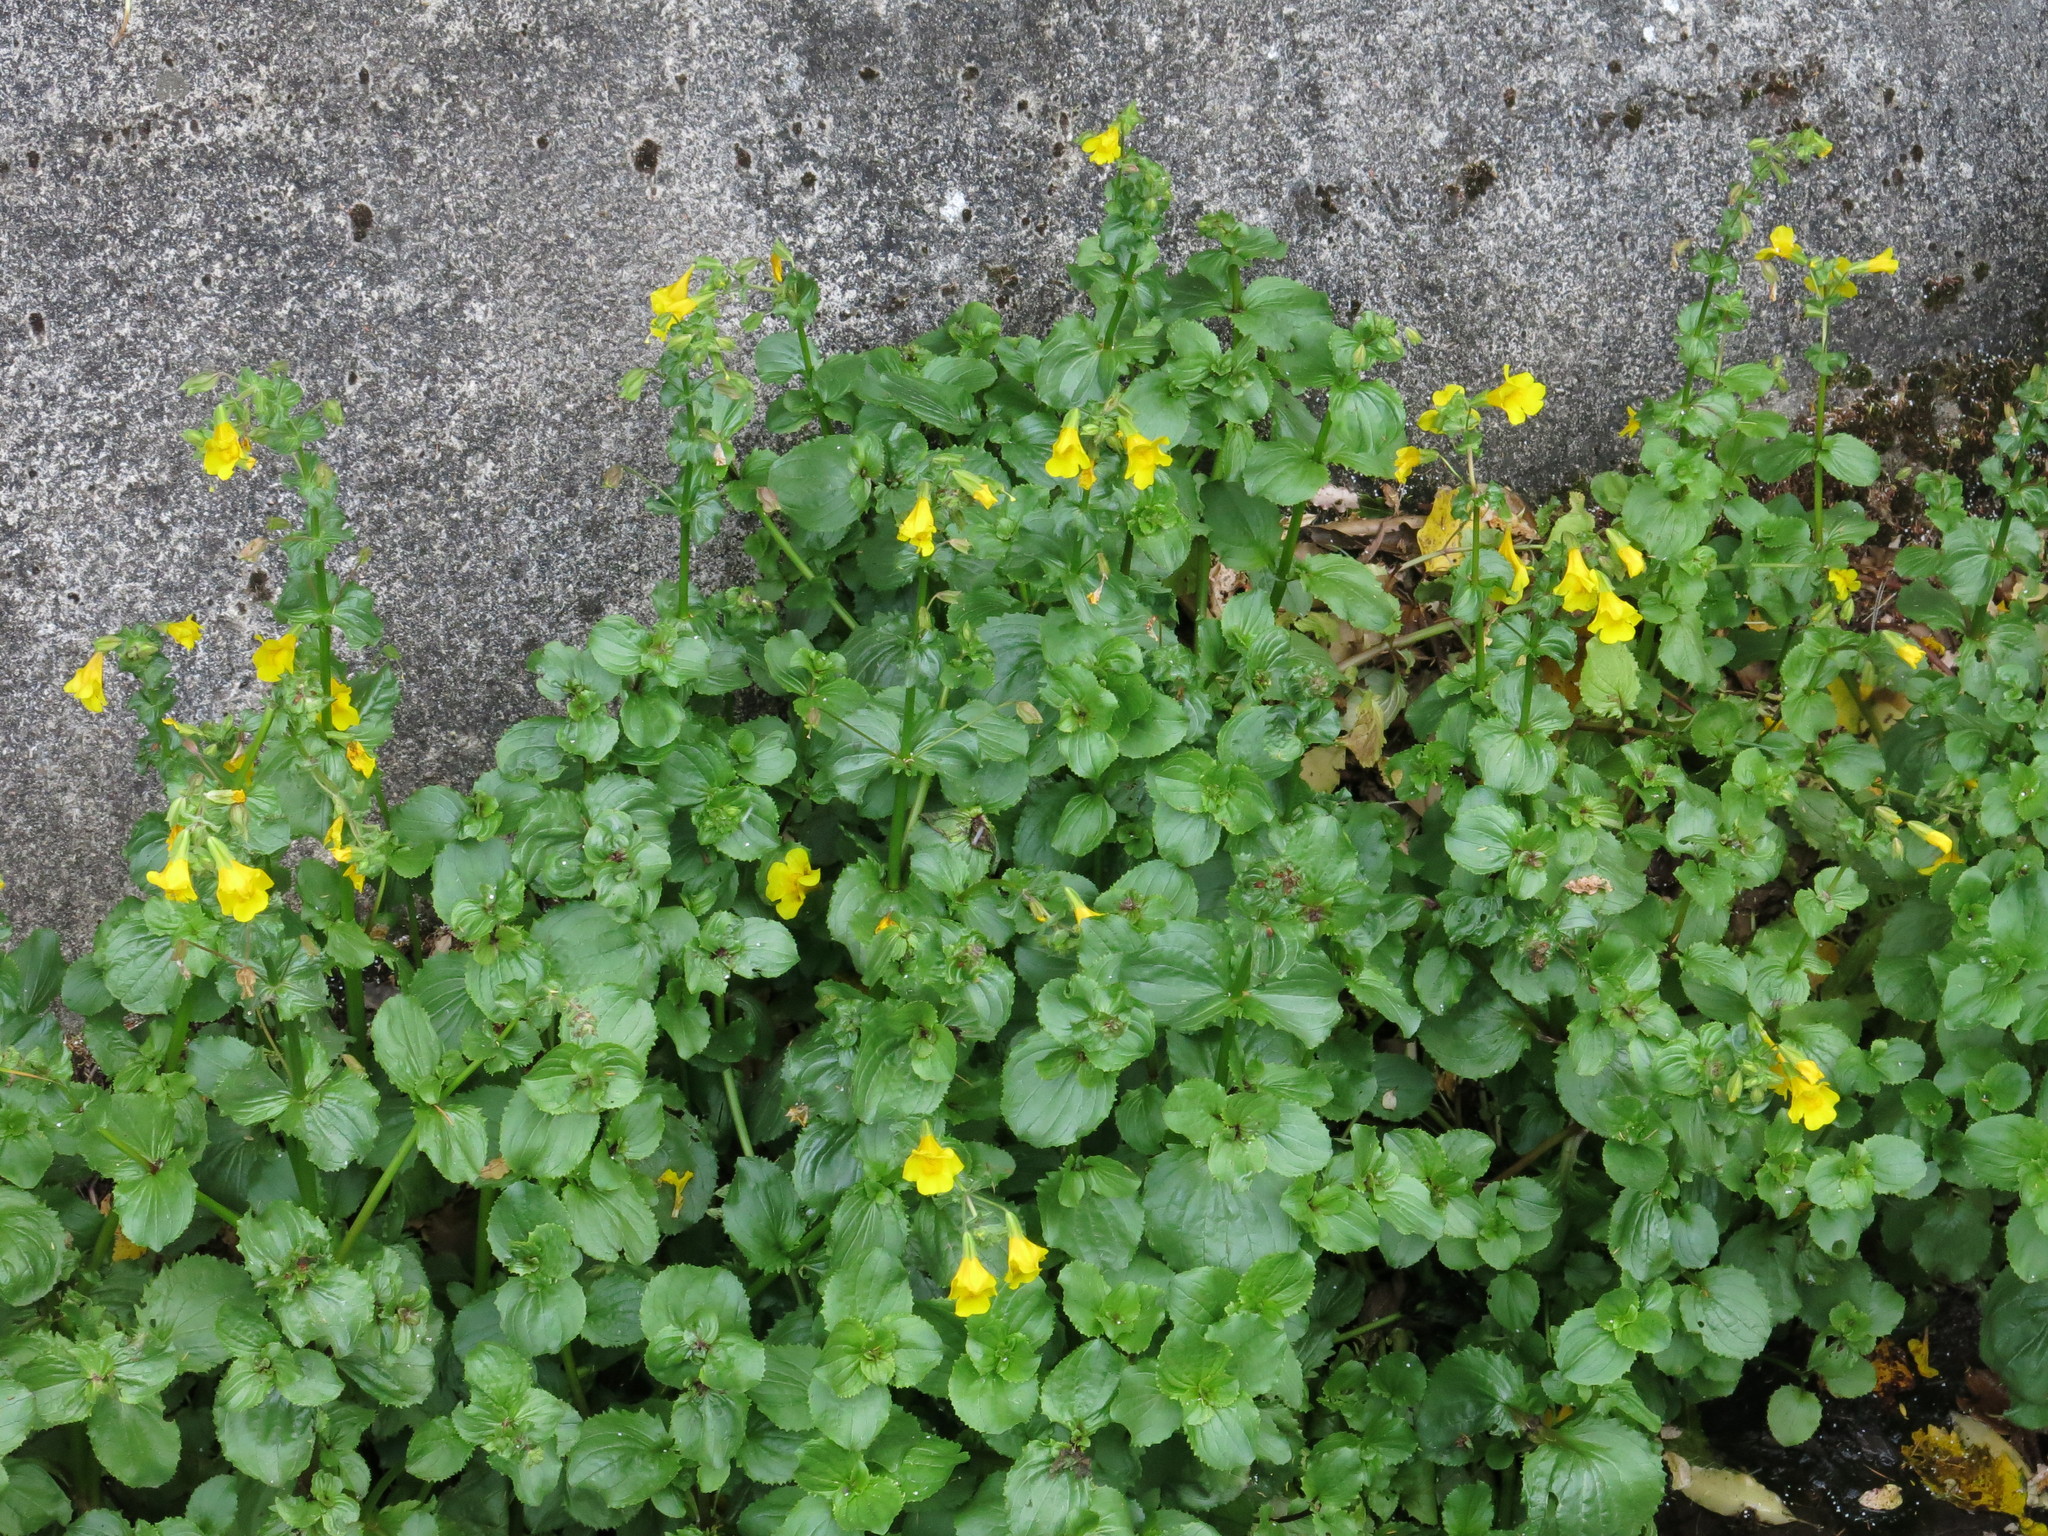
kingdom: Plantae
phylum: Tracheophyta
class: Magnoliopsida
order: Lamiales
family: Phrymaceae
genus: Erythranthe
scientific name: Erythranthe guttata
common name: Monkeyflower
